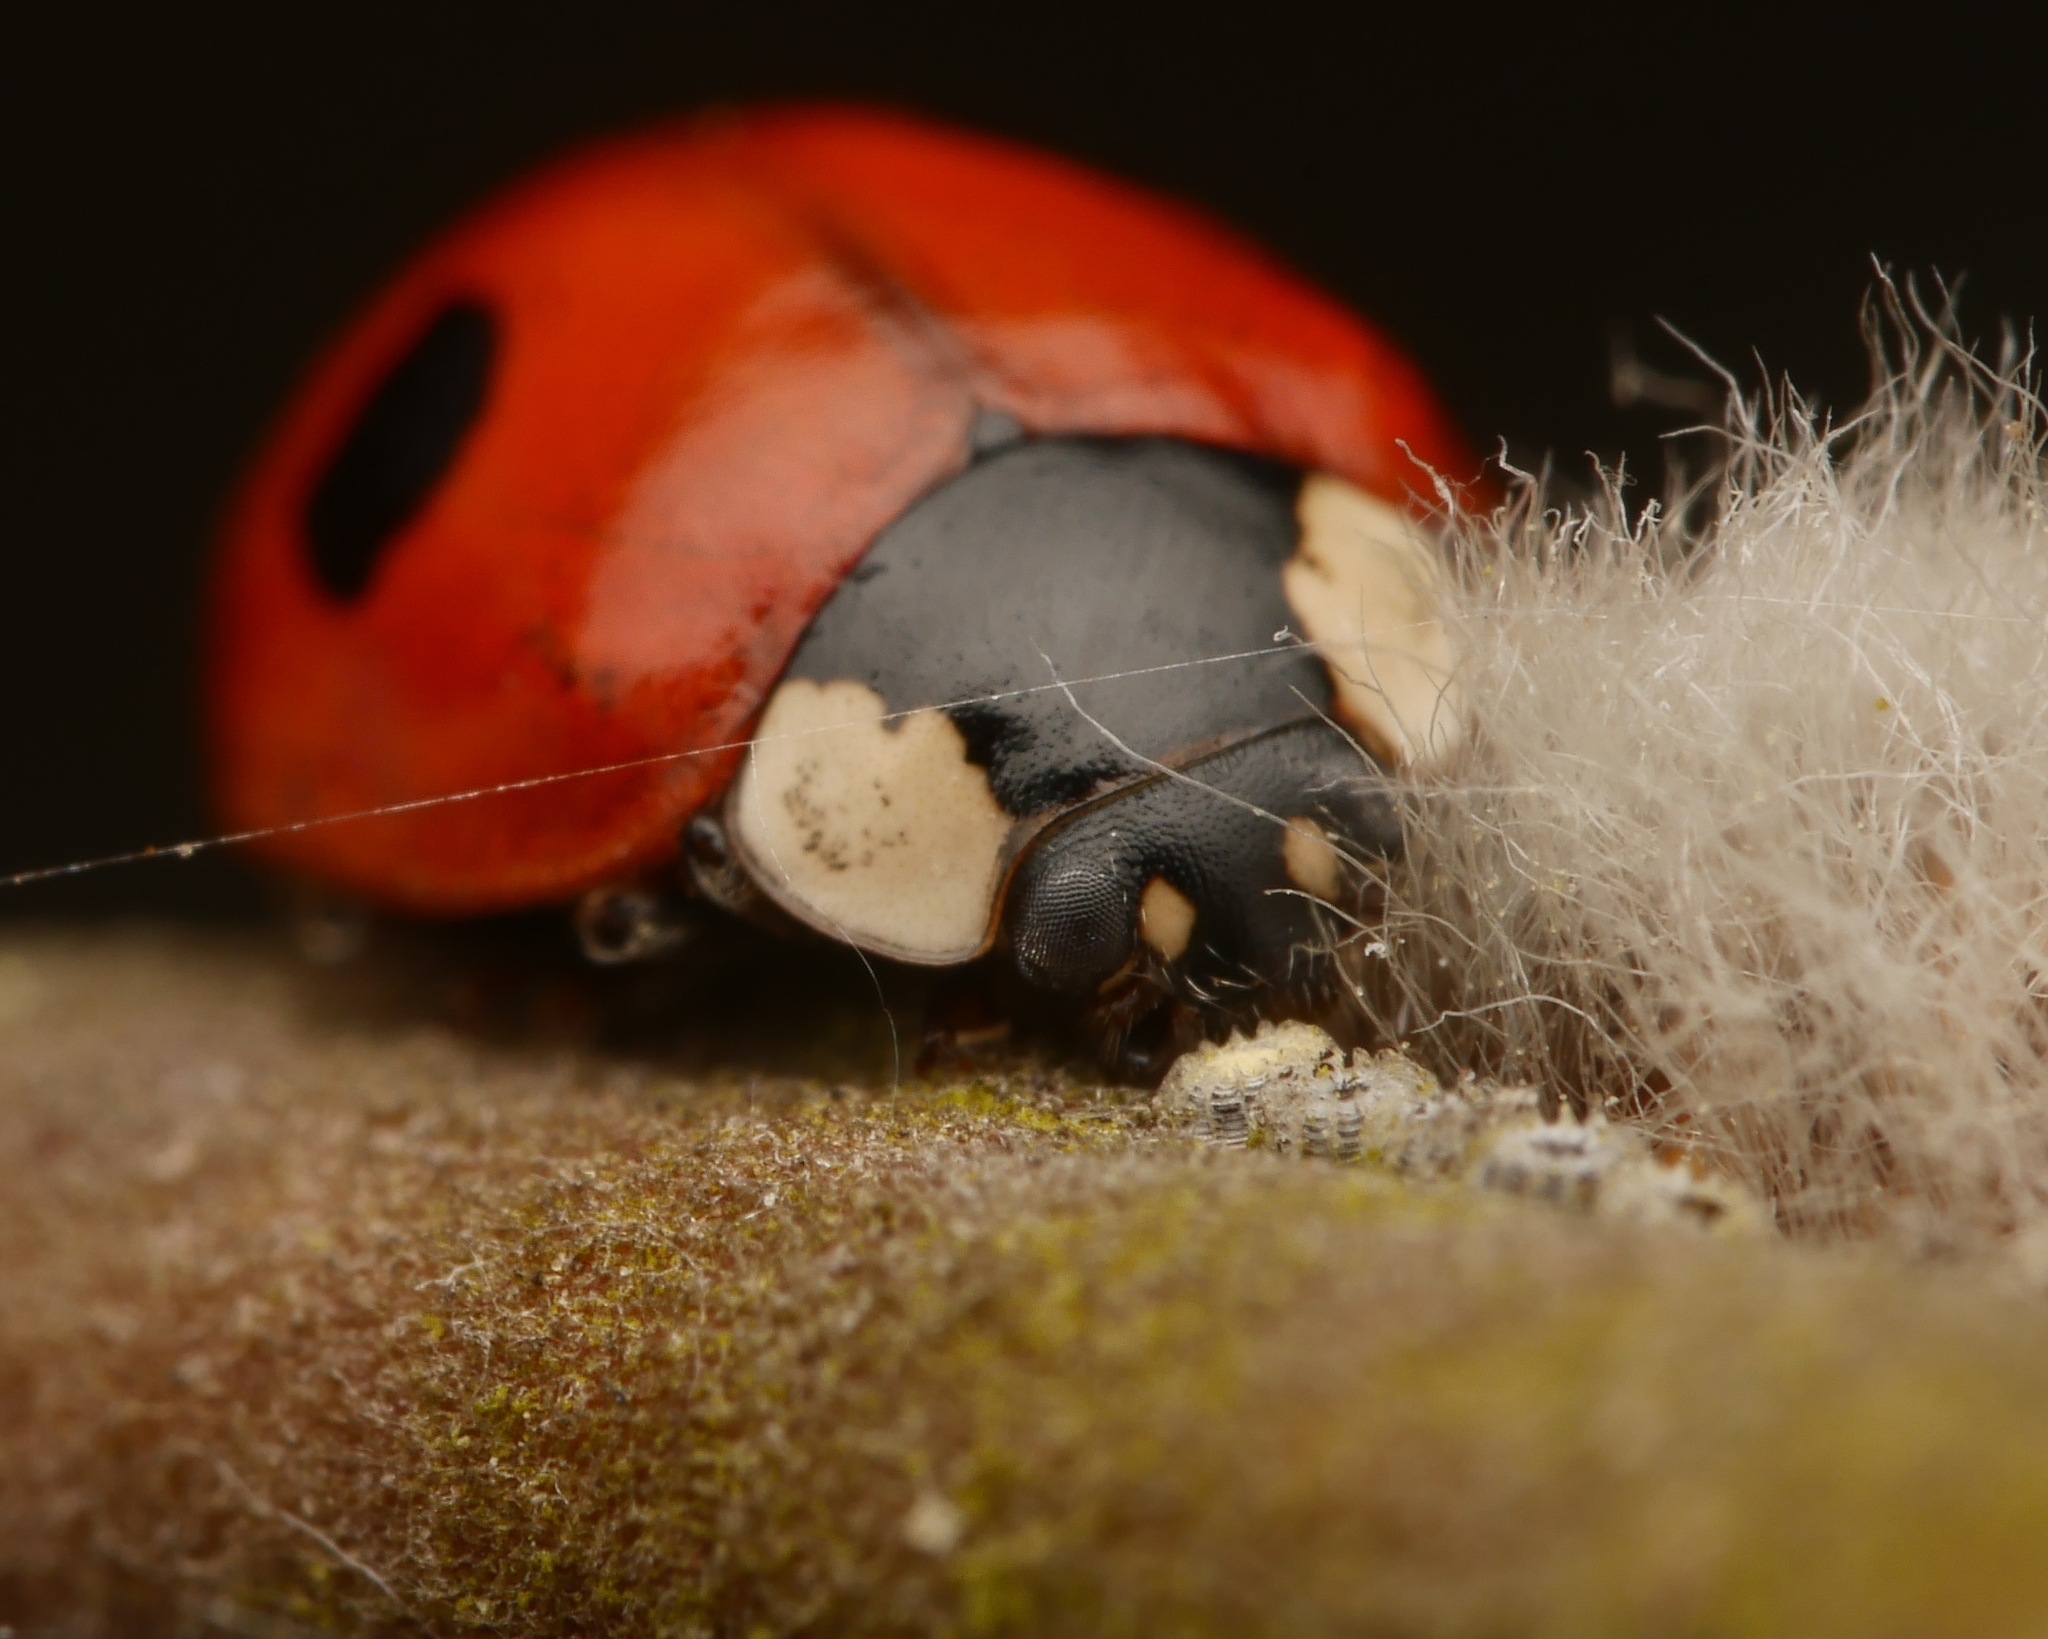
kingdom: Animalia
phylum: Arthropoda
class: Insecta
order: Coleoptera
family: Coccinellidae
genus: Adalia
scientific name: Adalia bipunctata
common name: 2-spot ladybird
